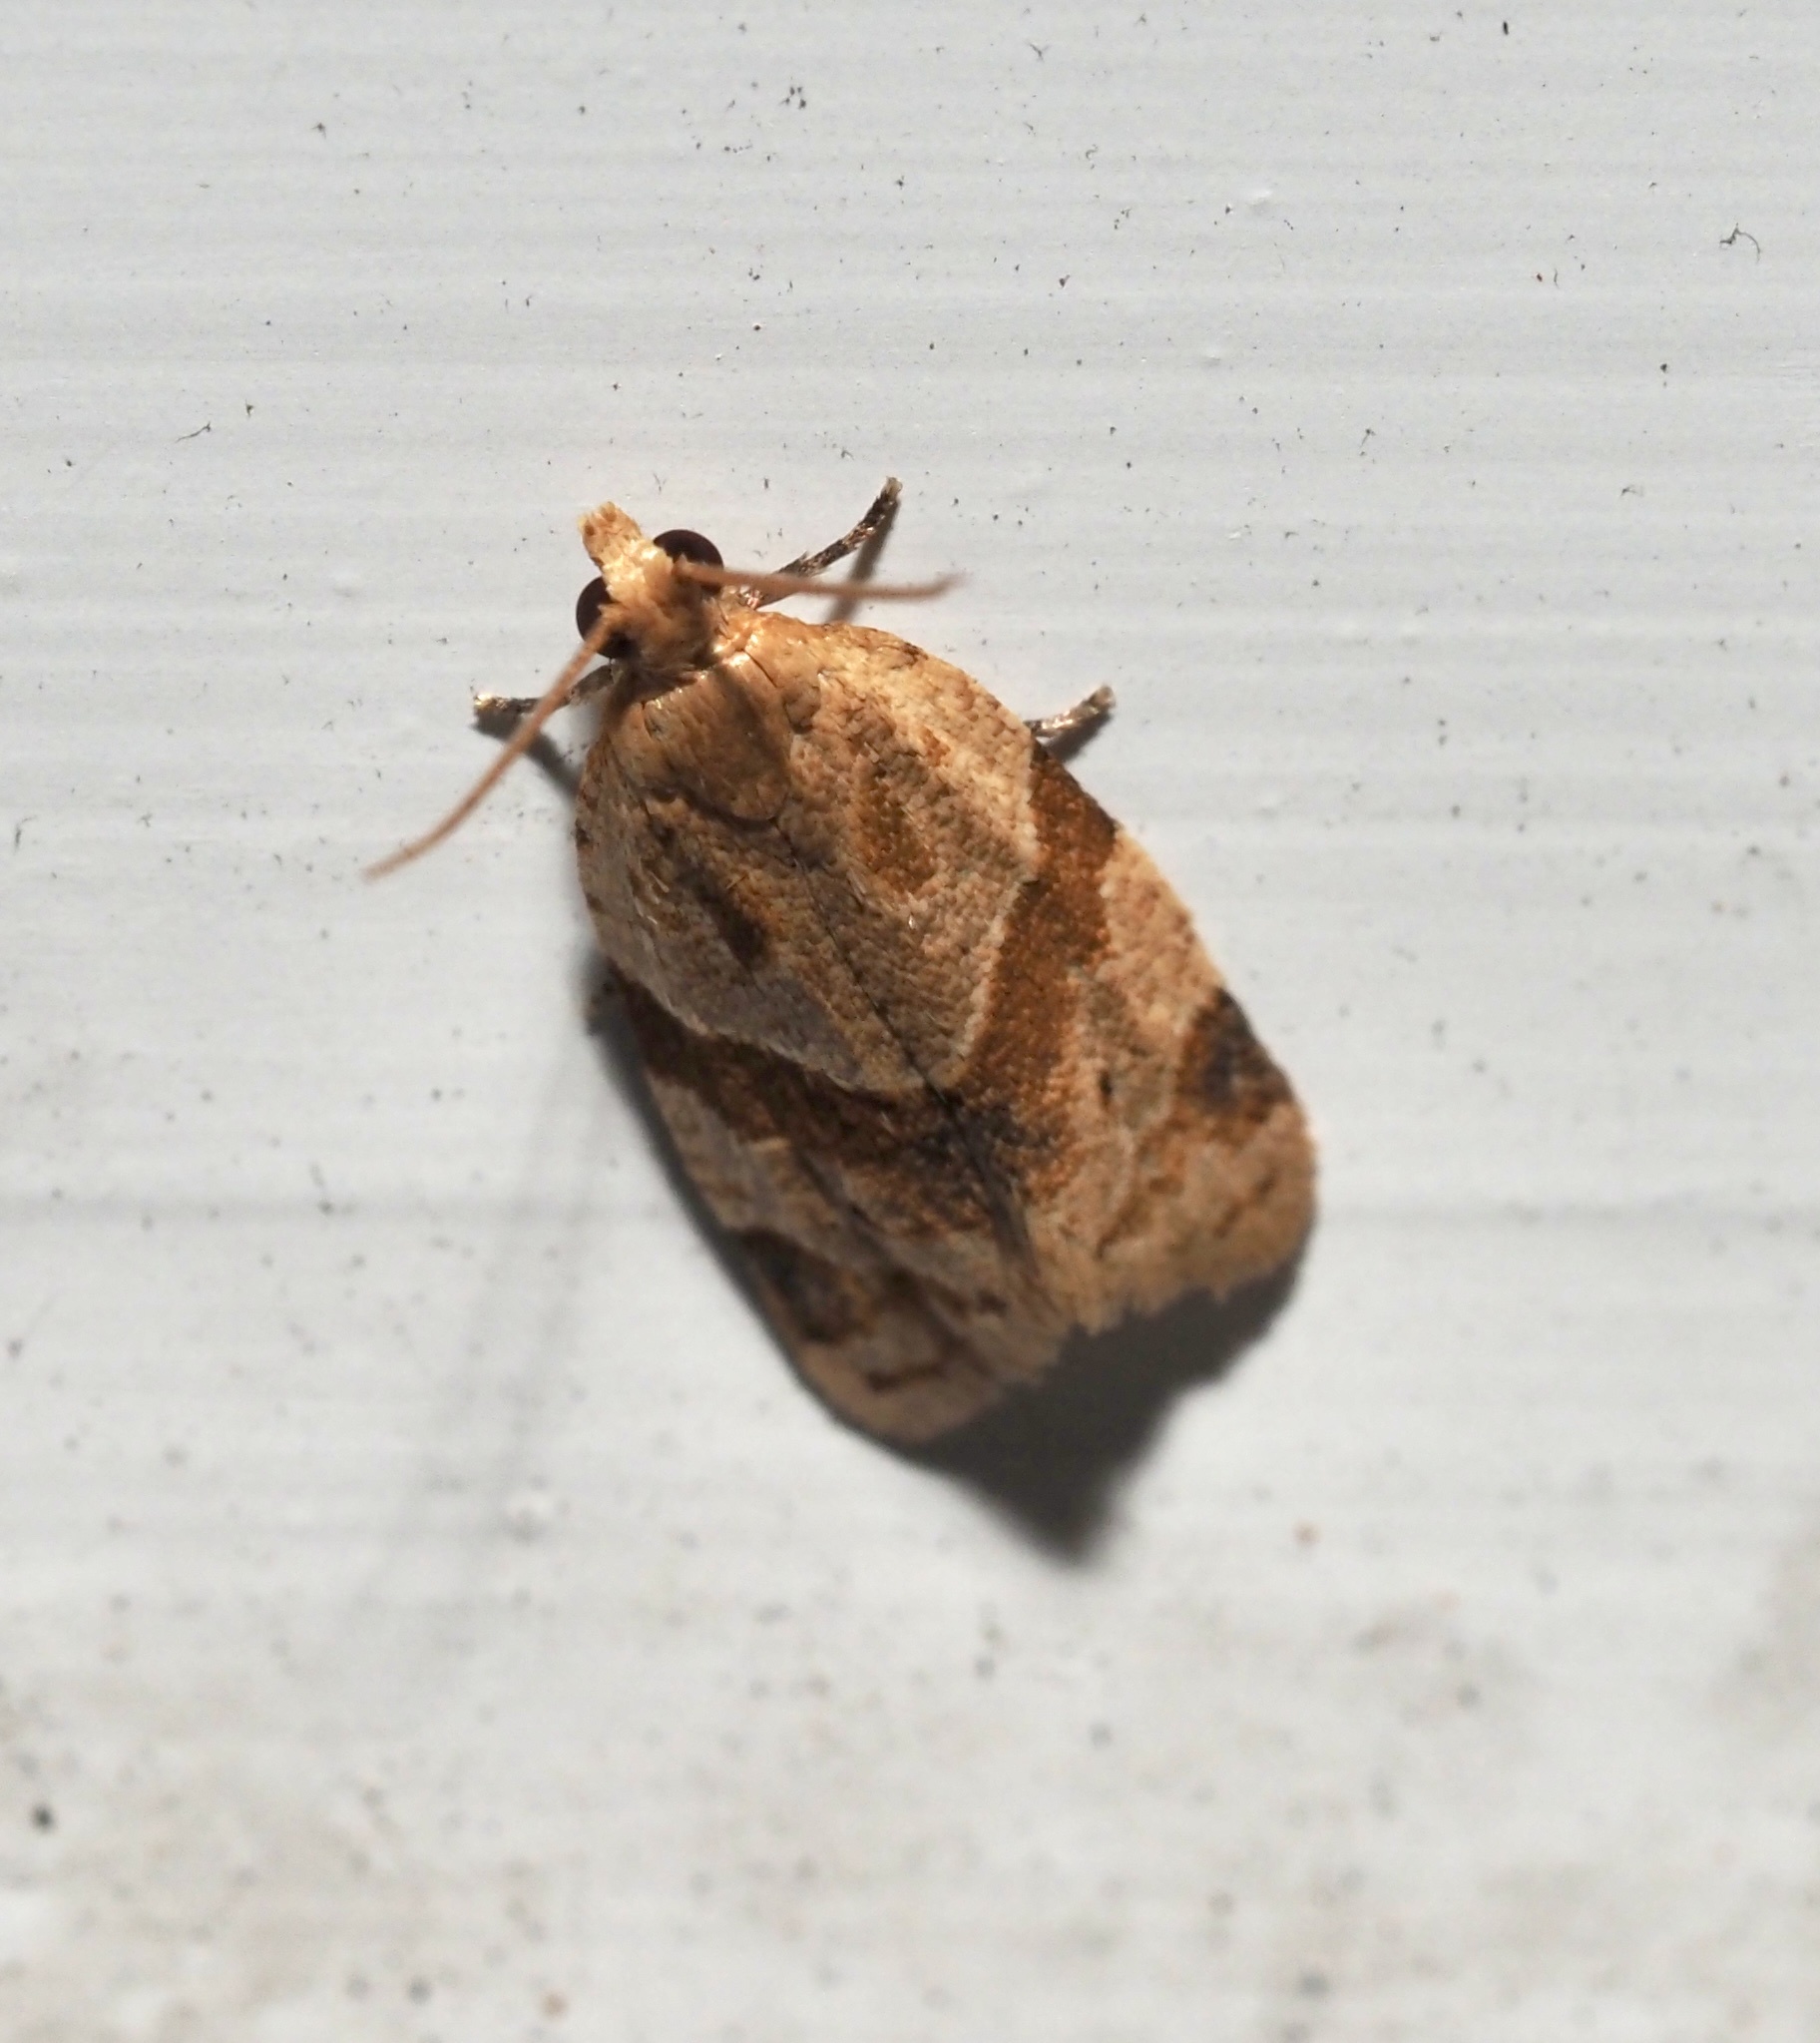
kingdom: Animalia
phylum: Arthropoda
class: Insecta
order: Lepidoptera
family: Tortricidae
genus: Clepsis
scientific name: Clepsis peritana
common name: Garden tortrix
